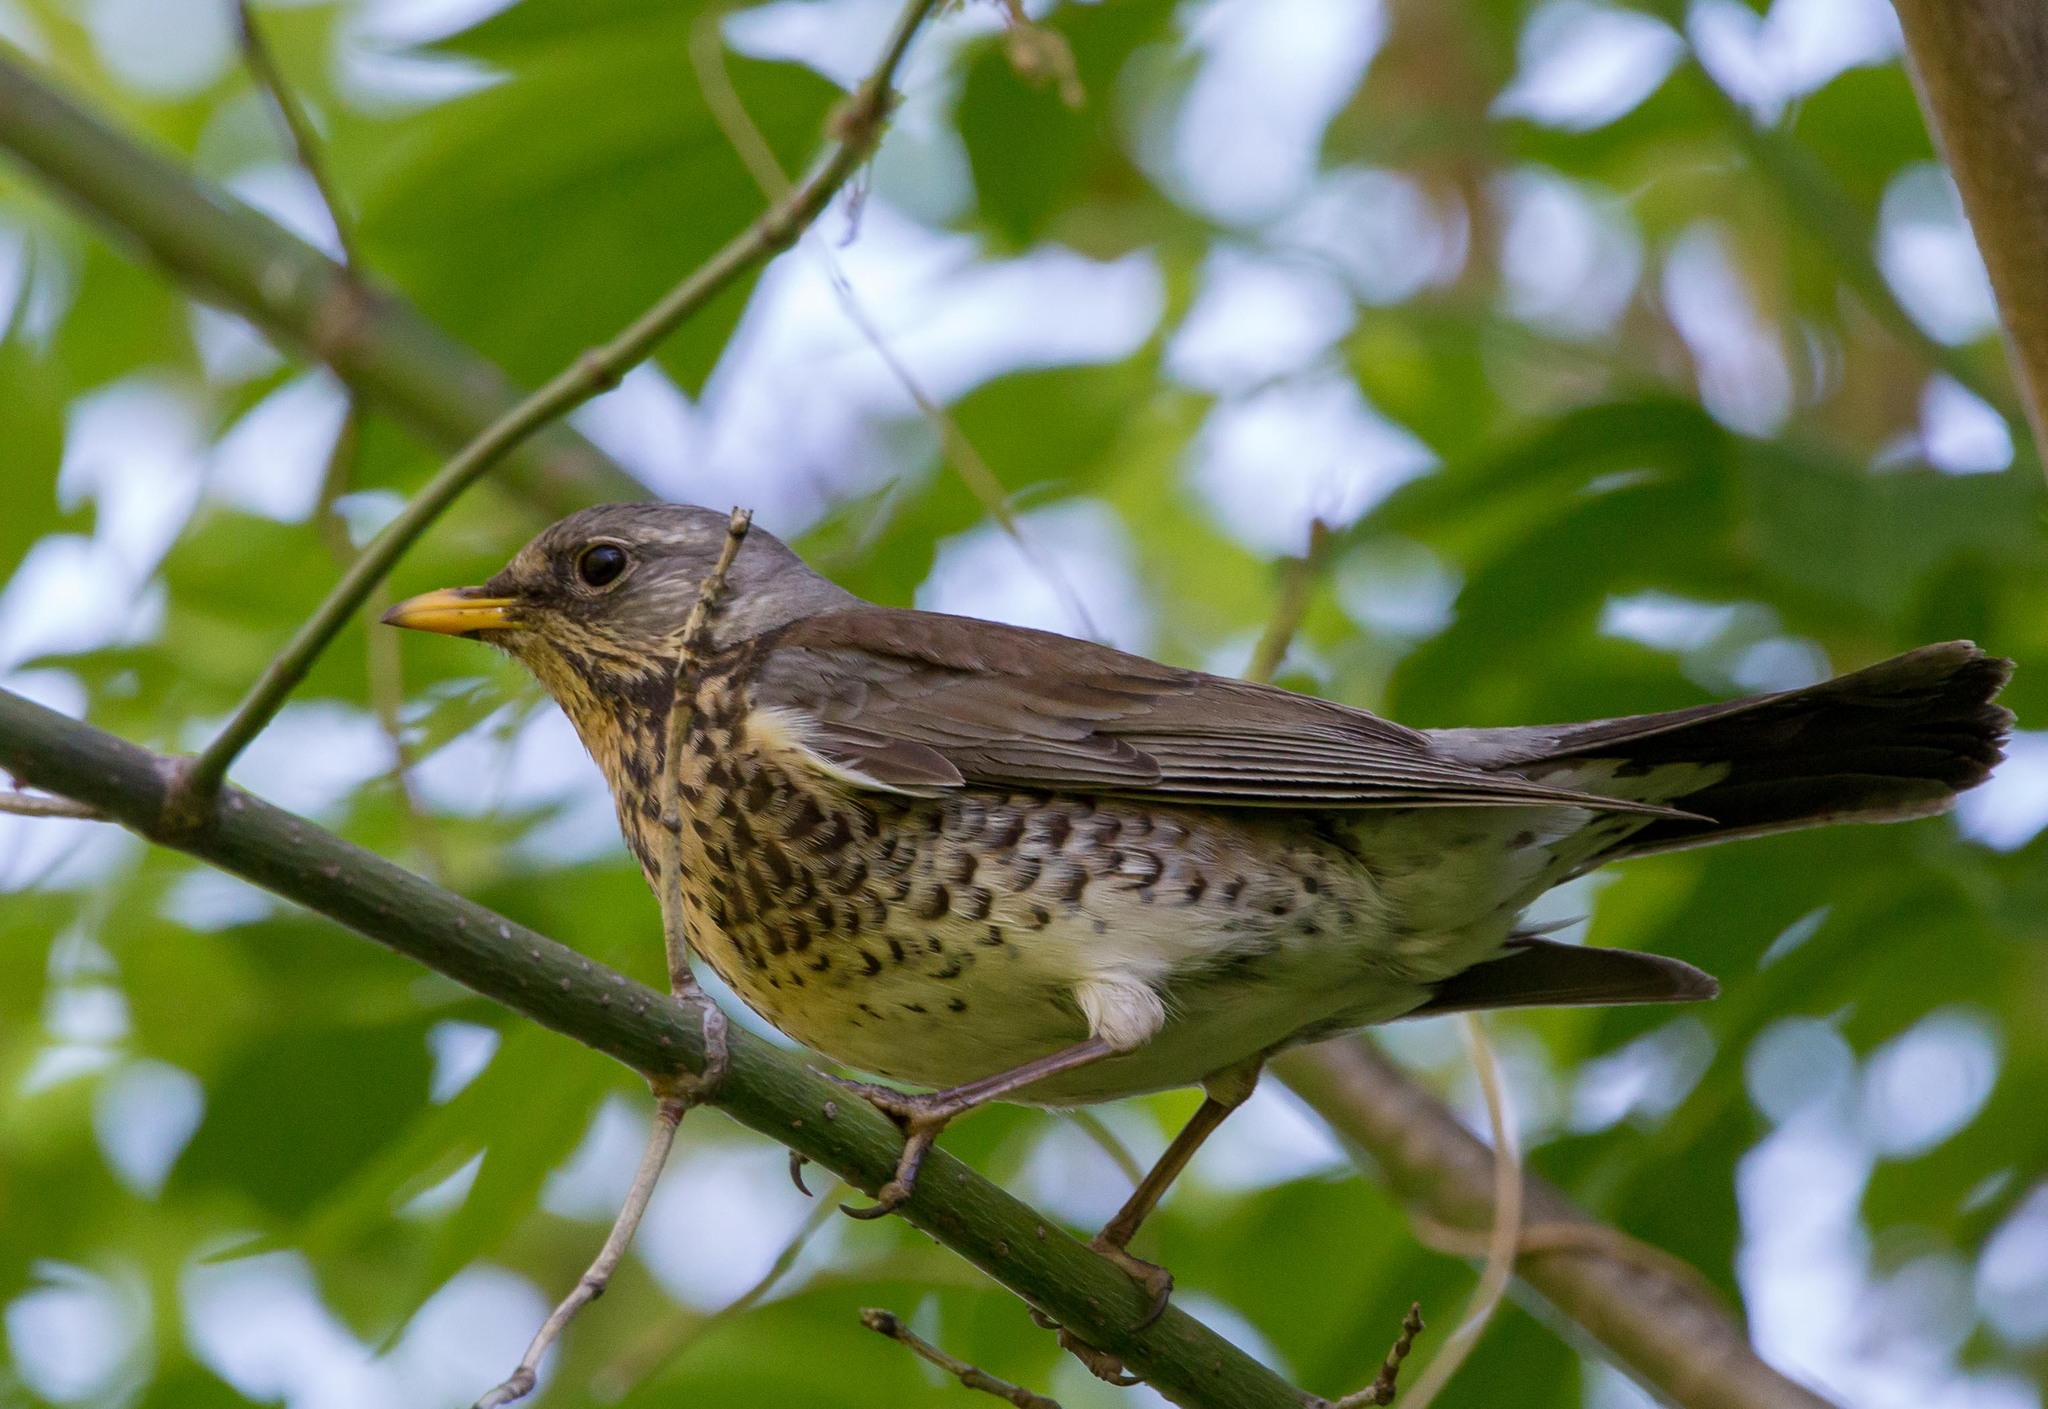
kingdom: Animalia
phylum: Chordata
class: Aves
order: Passeriformes
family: Turdidae
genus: Turdus
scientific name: Turdus pilaris
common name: Fieldfare
